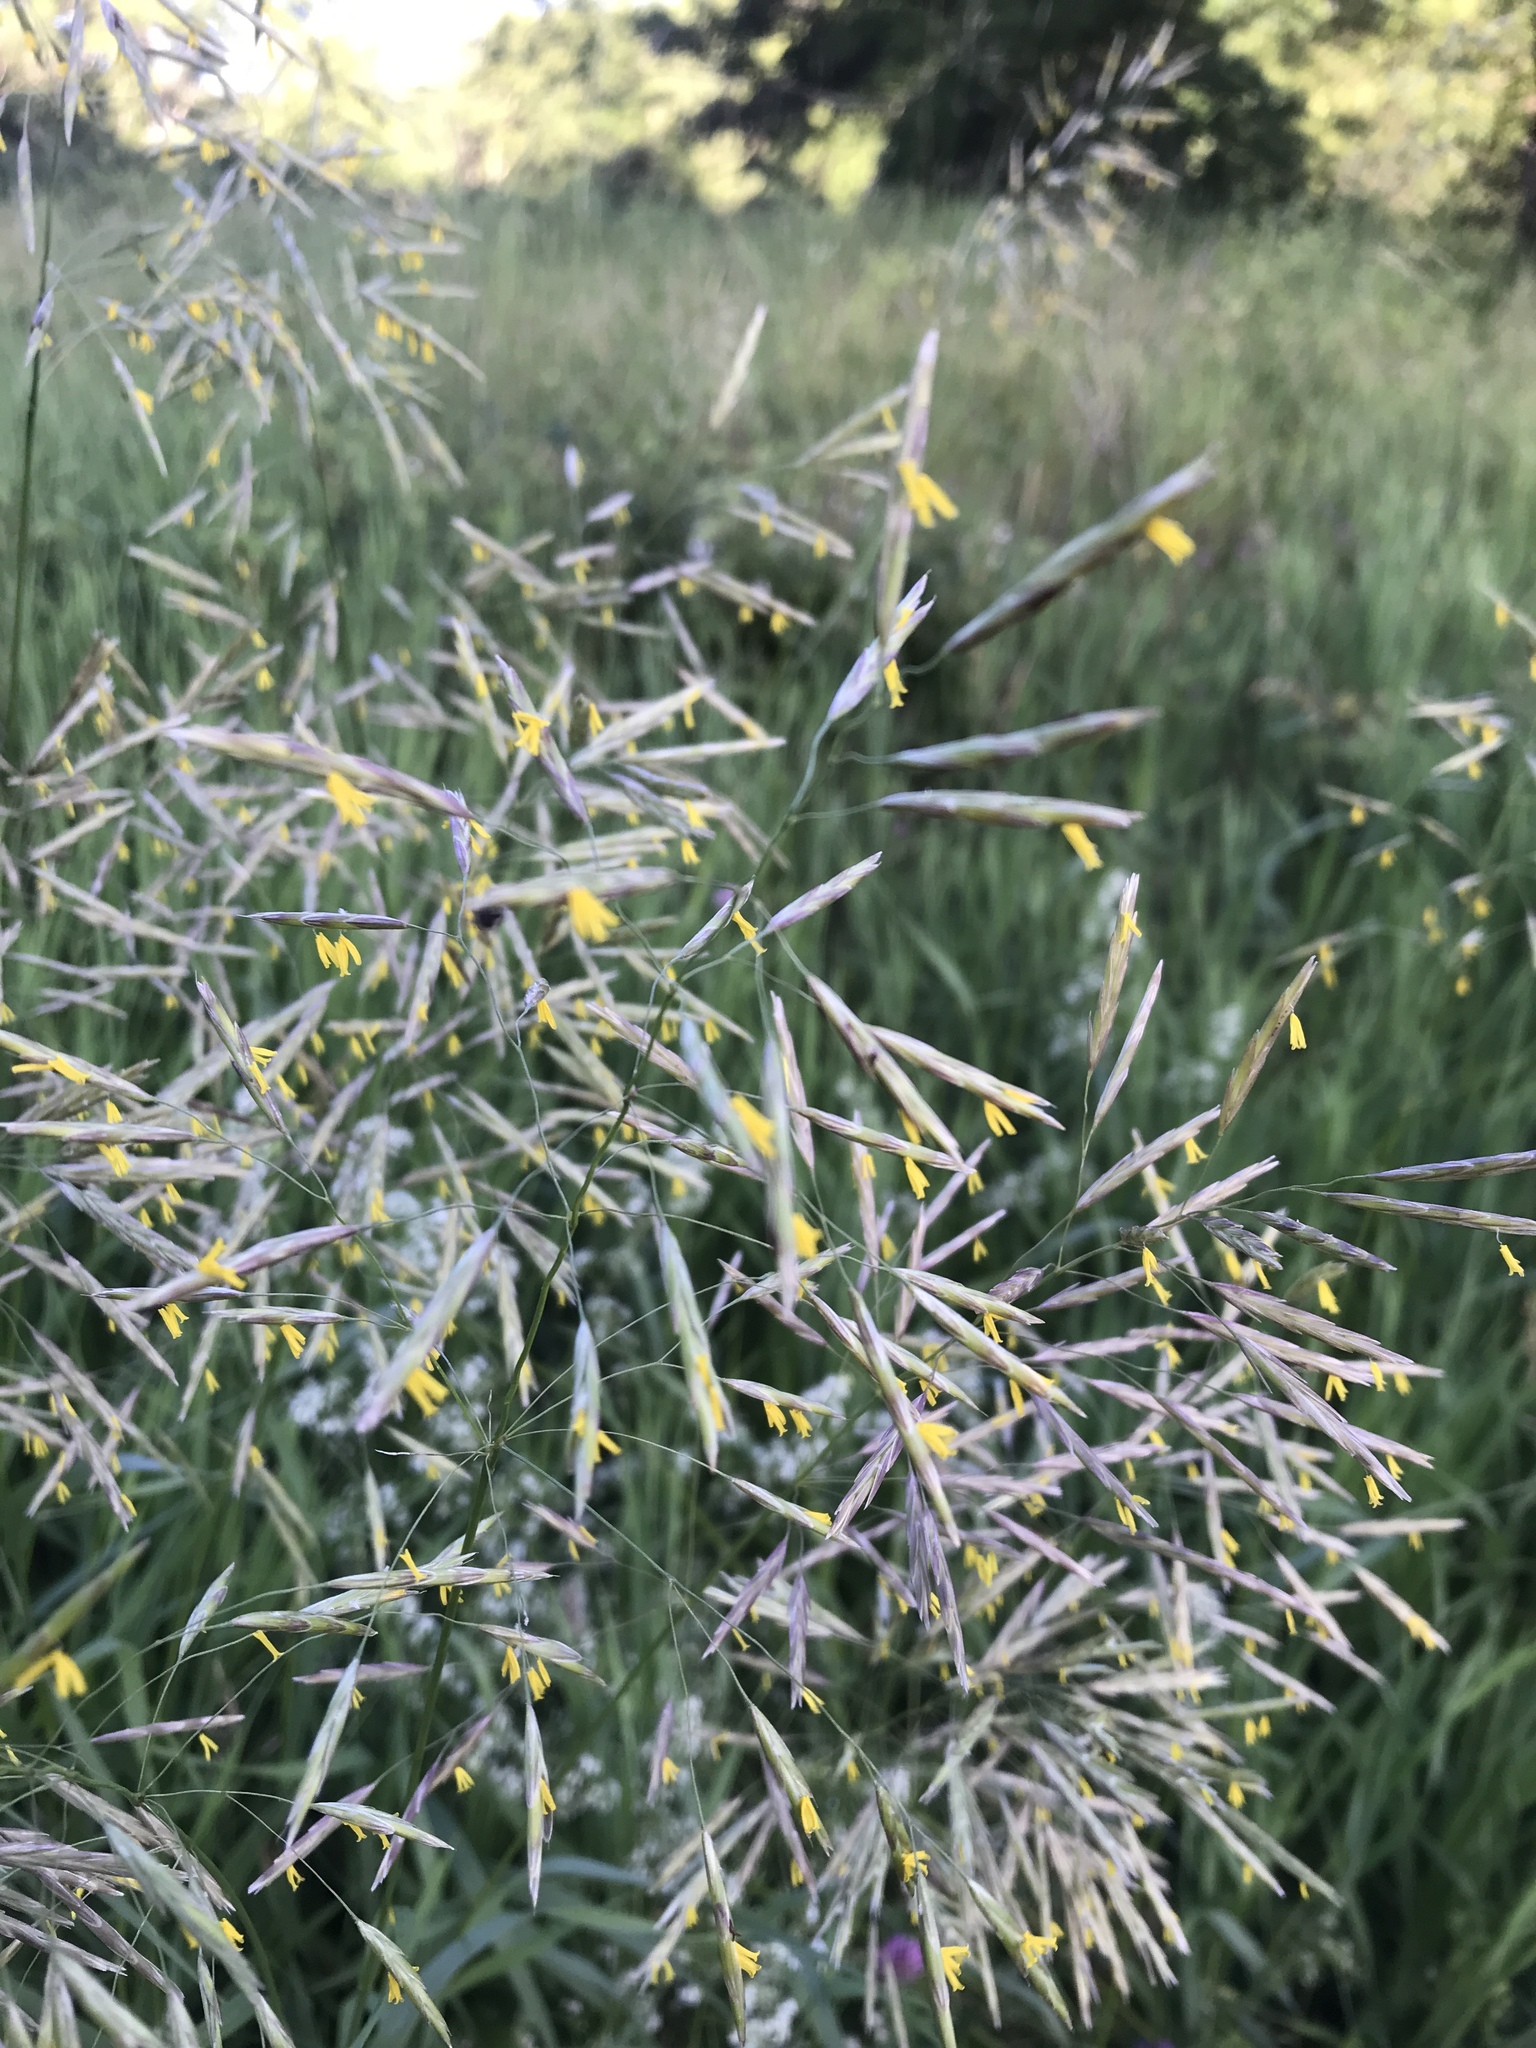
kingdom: Plantae
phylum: Tracheophyta
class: Liliopsida
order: Poales
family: Poaceae
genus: Bromus
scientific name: Bromus inermis
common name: Smooth brome
